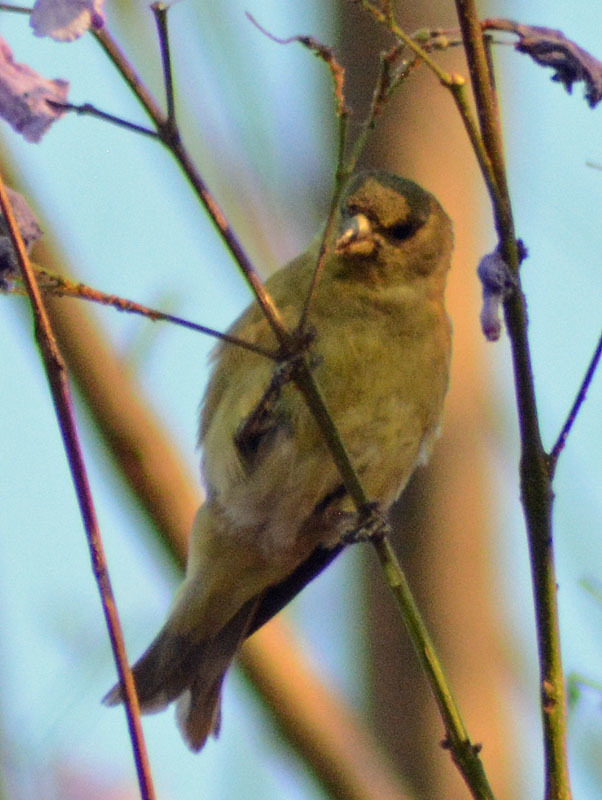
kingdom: Animalia
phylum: Chordata
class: Aves
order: Passeriformes
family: Fringillidae
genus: Spinus
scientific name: Spinus psaltria
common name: Lesser goldfinch
